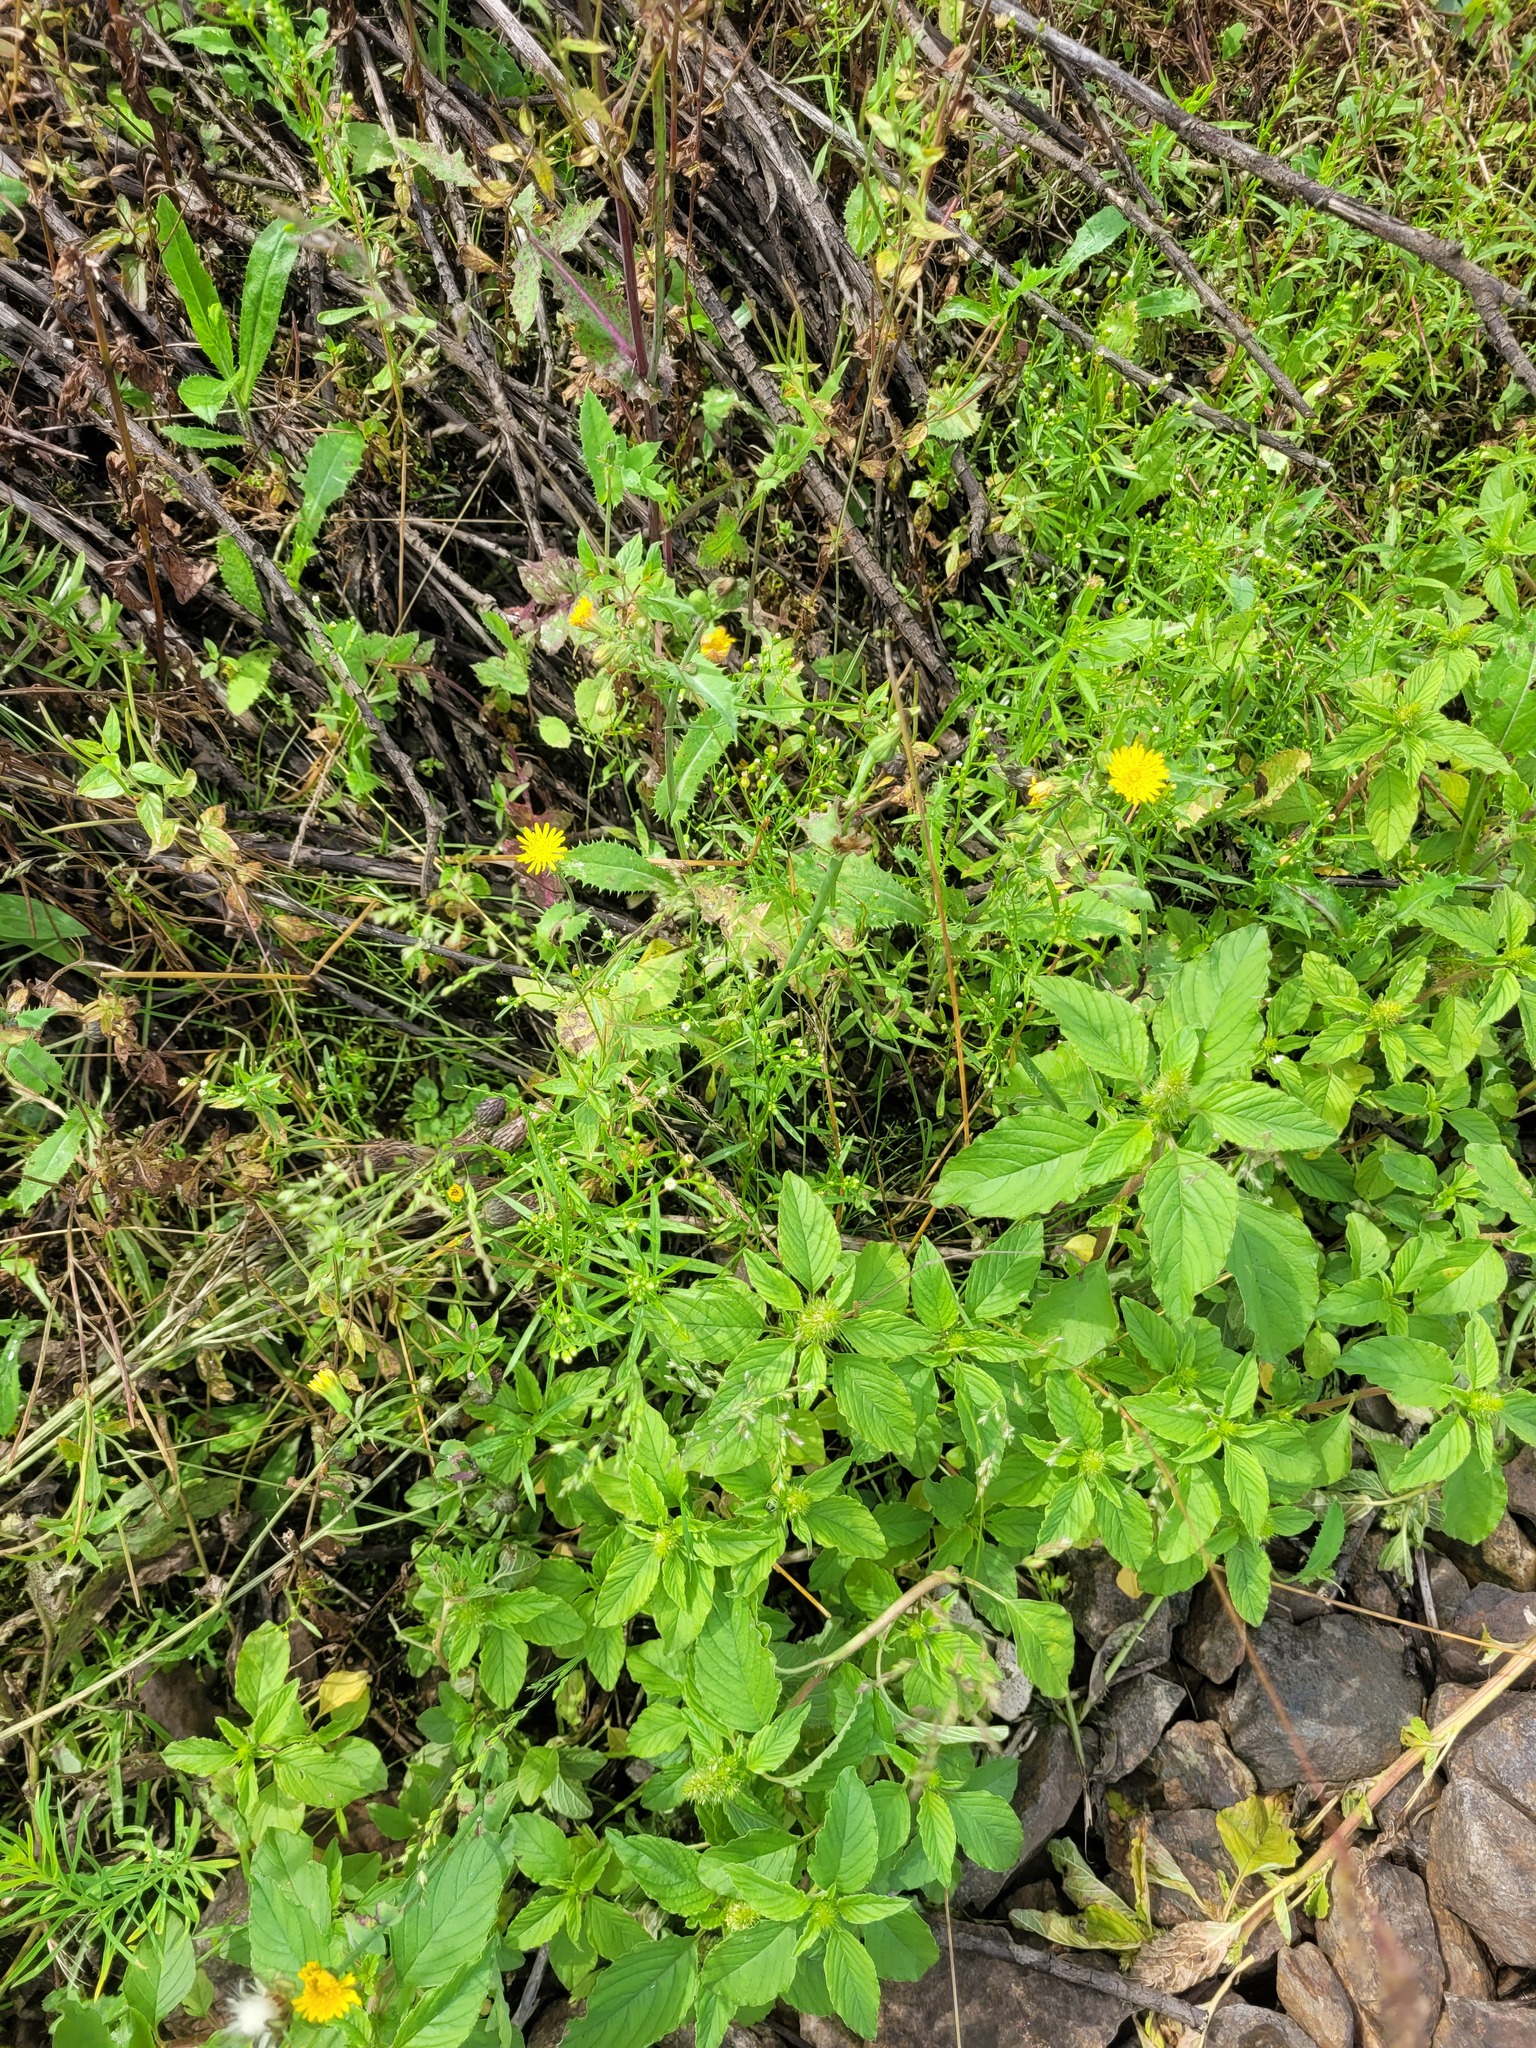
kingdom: Plantae
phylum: Tracheophyta
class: Magnoliopsida
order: Asterales
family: Asteraceae
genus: Sonchus
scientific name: Sonchus asper
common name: Prickly sow-thistle
